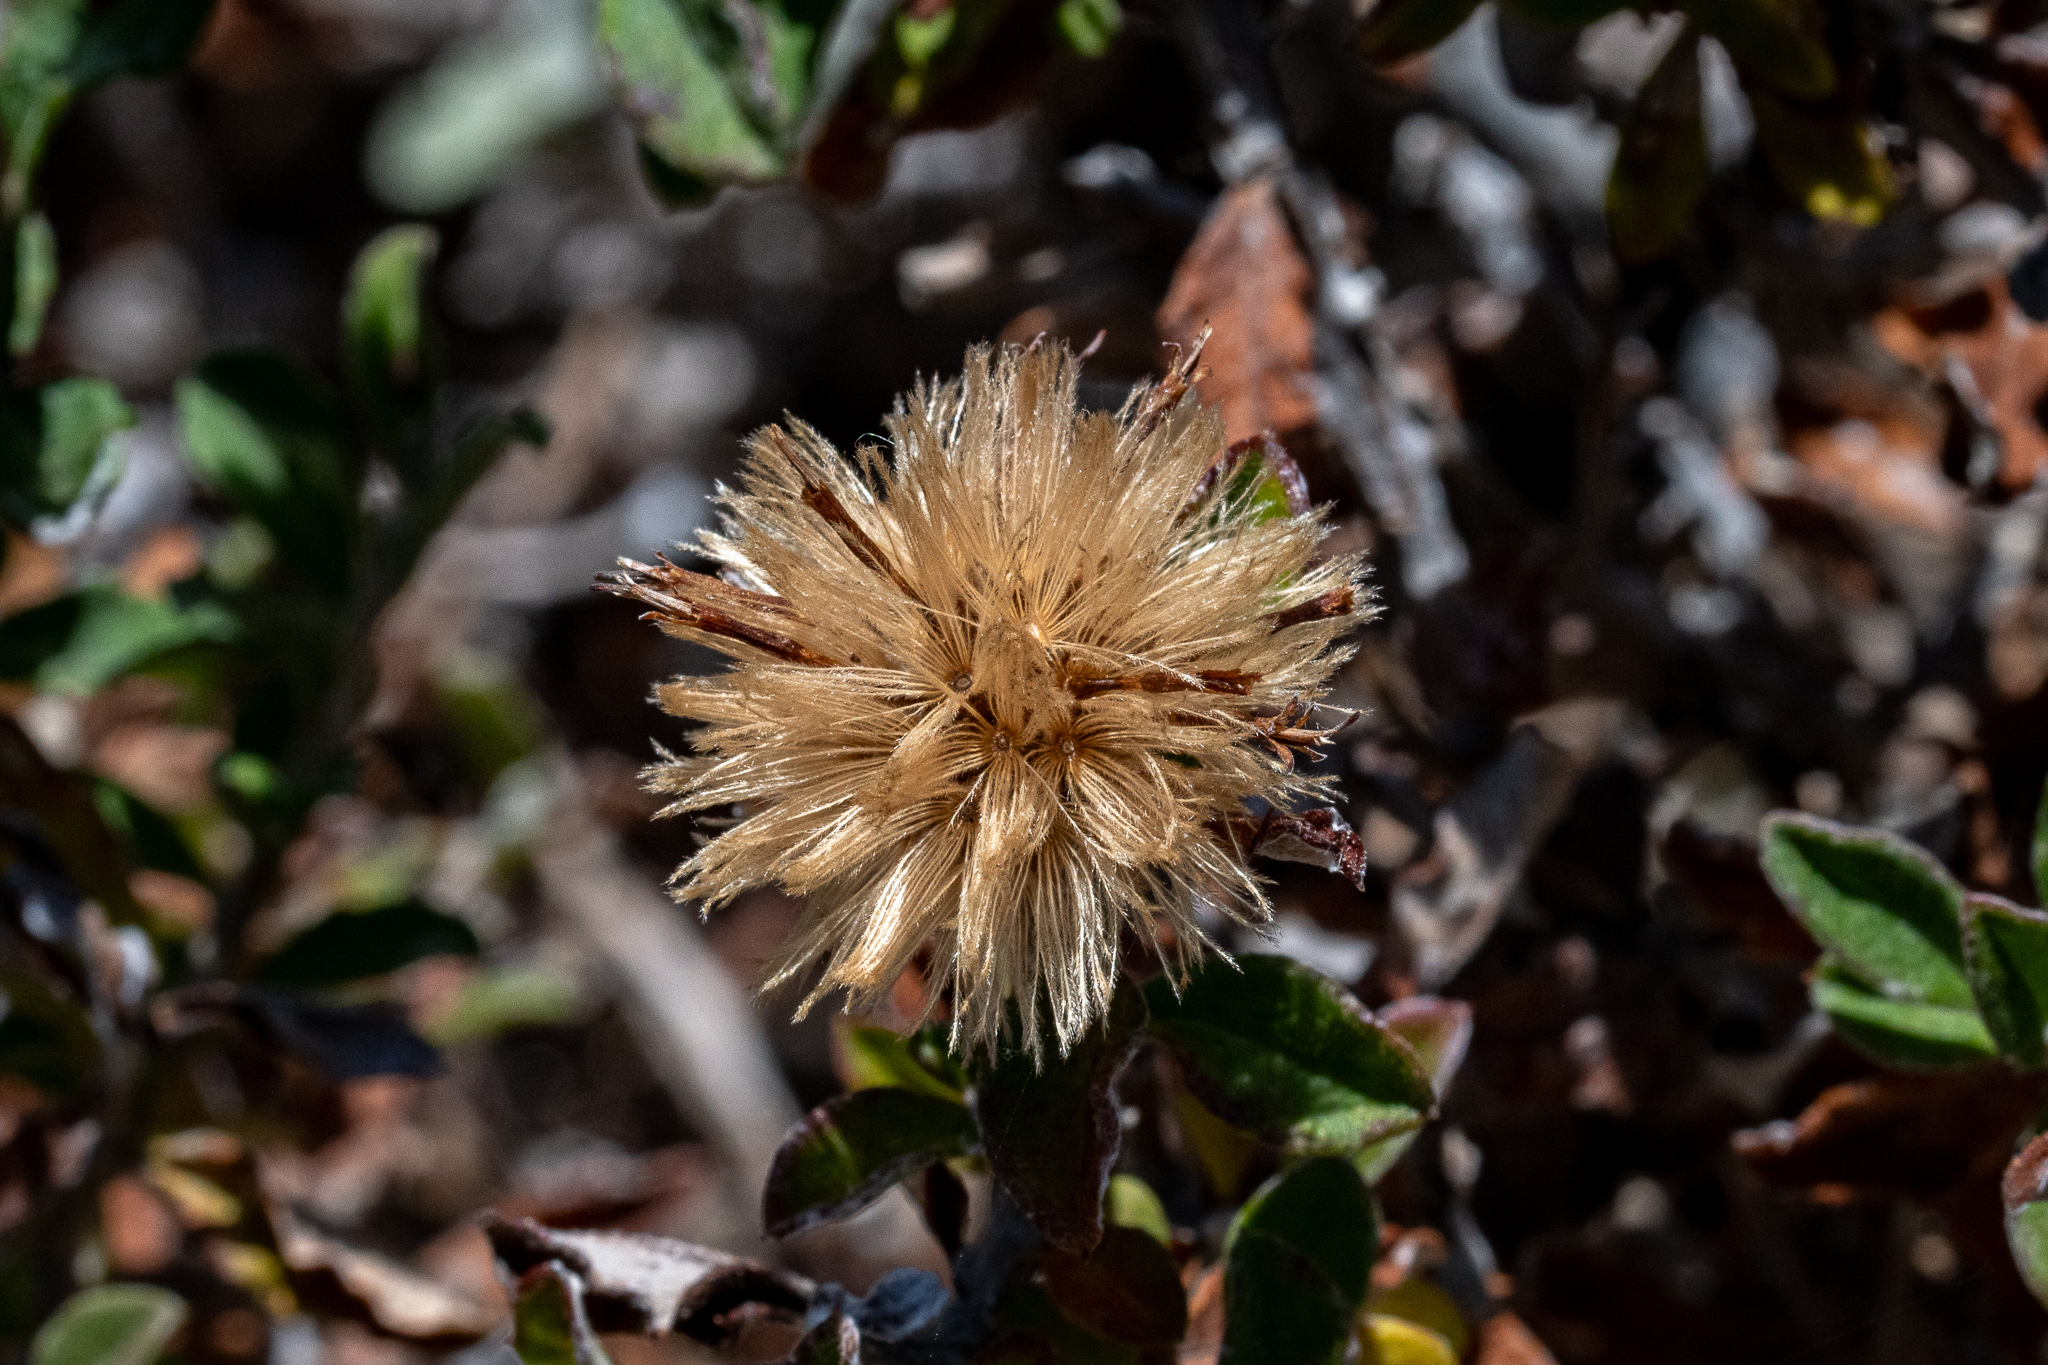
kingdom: Plantae
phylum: Tracheophyta
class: Magnoliopsida
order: Asterales
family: Asteraceae
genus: Printzia
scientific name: Printzia polifolia
